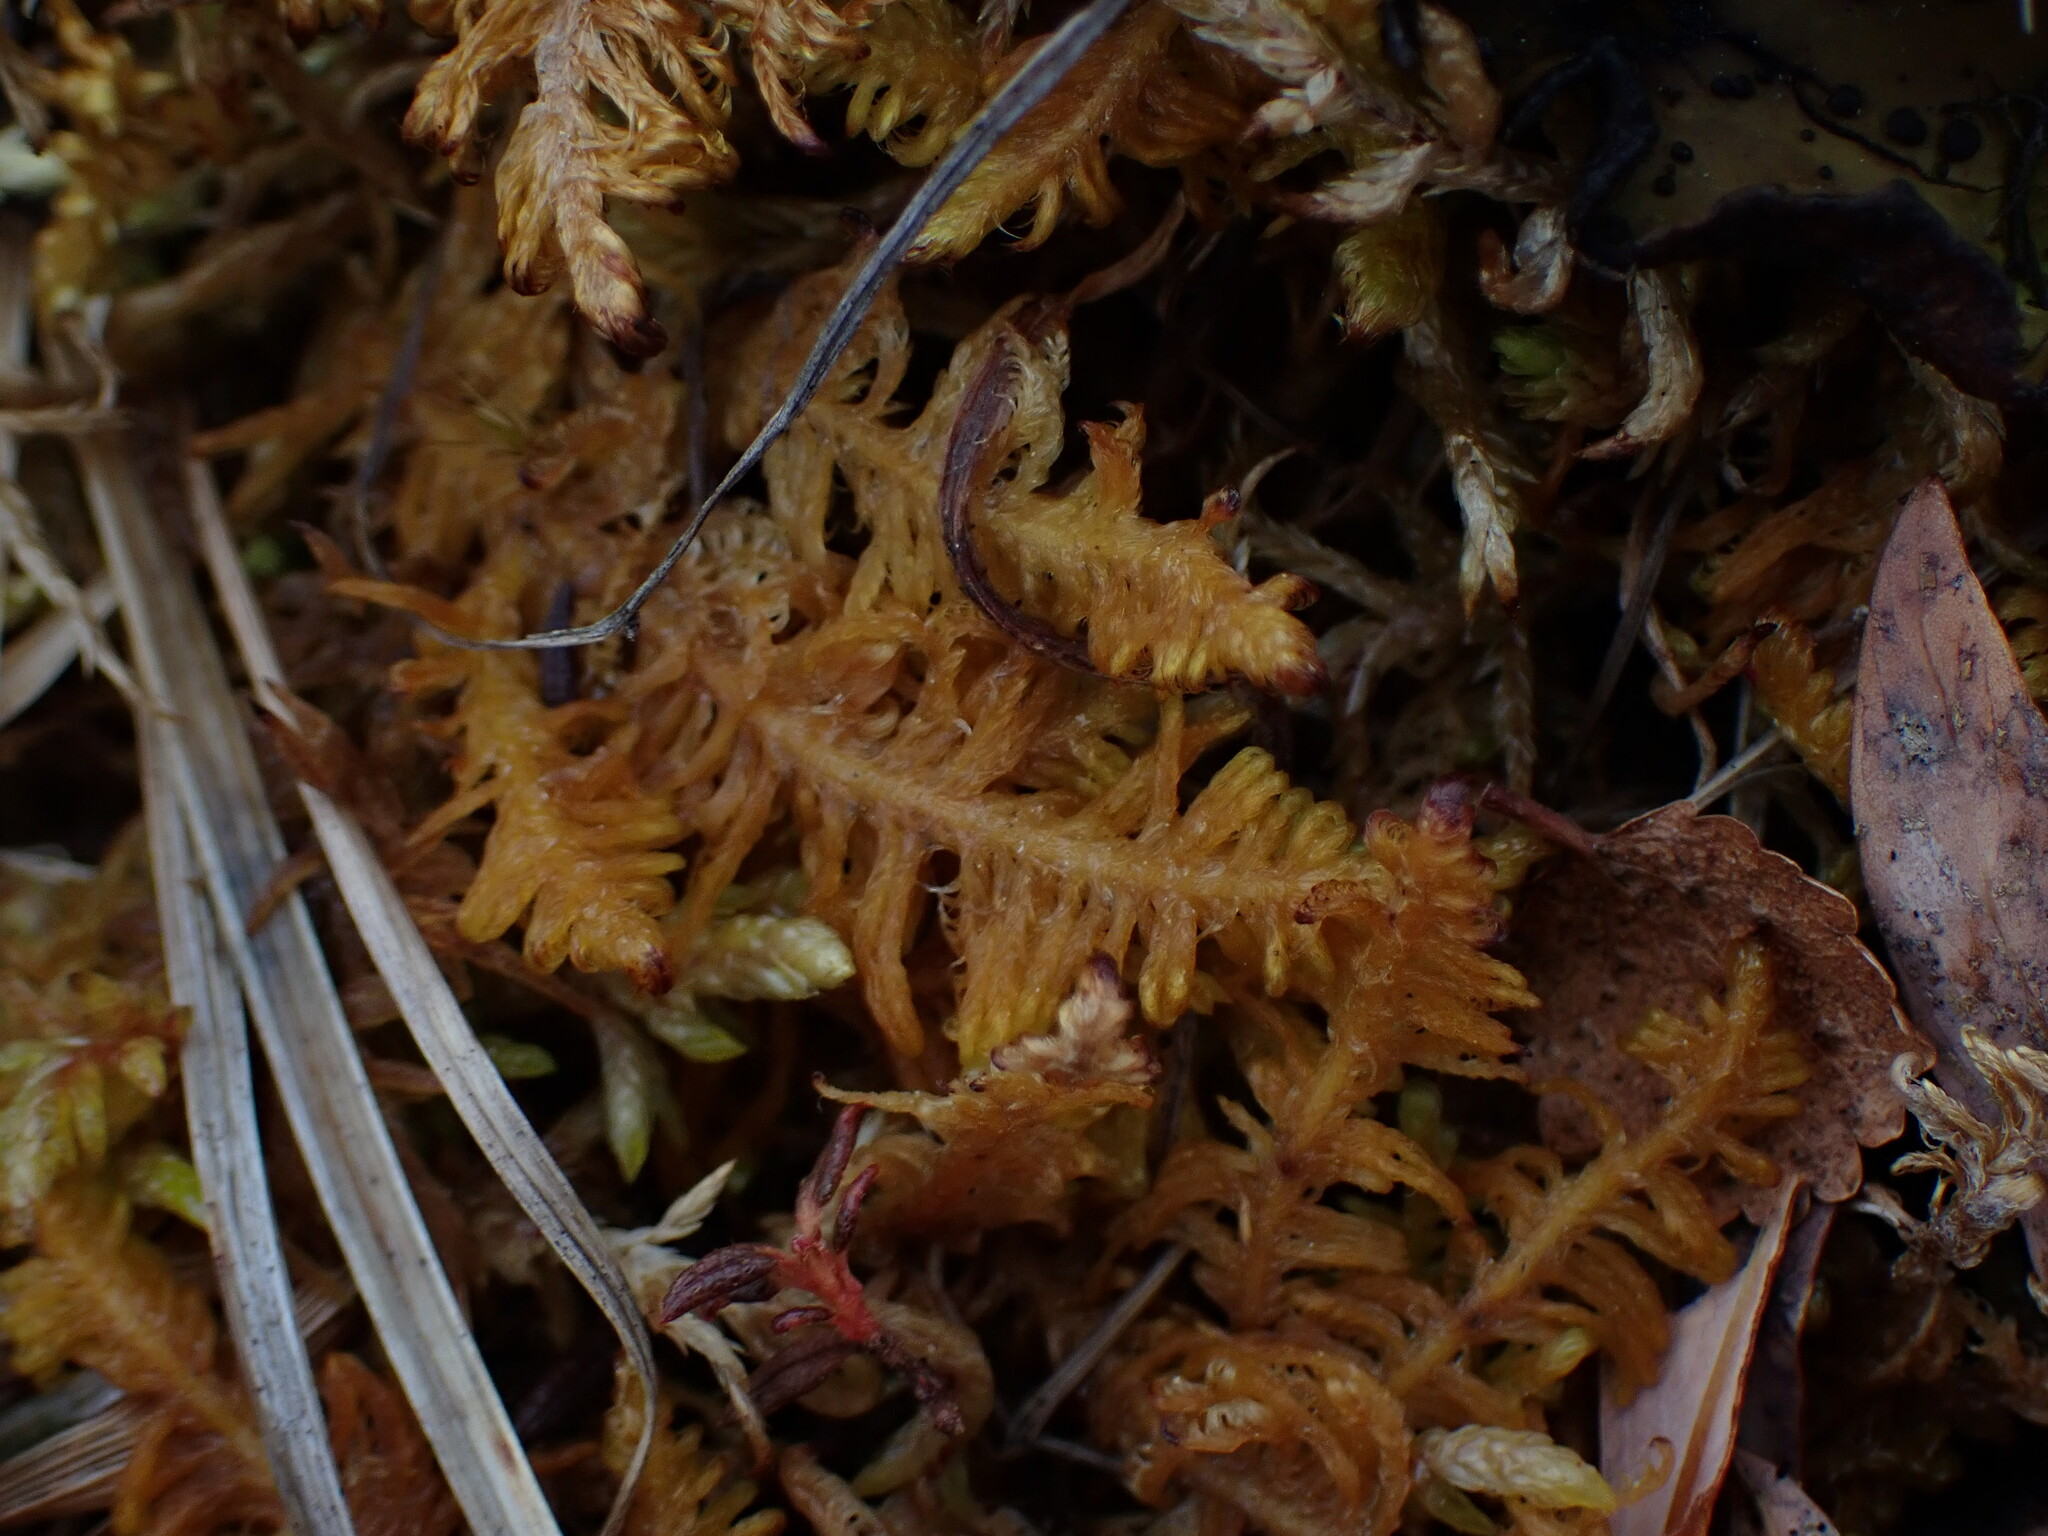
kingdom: Plantae
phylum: Bryophyta
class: Bryopsida
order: Hypnales
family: Pylaisiaceae
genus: Ptilium
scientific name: Ptilium crista-castrensis
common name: Knight's plume moss
